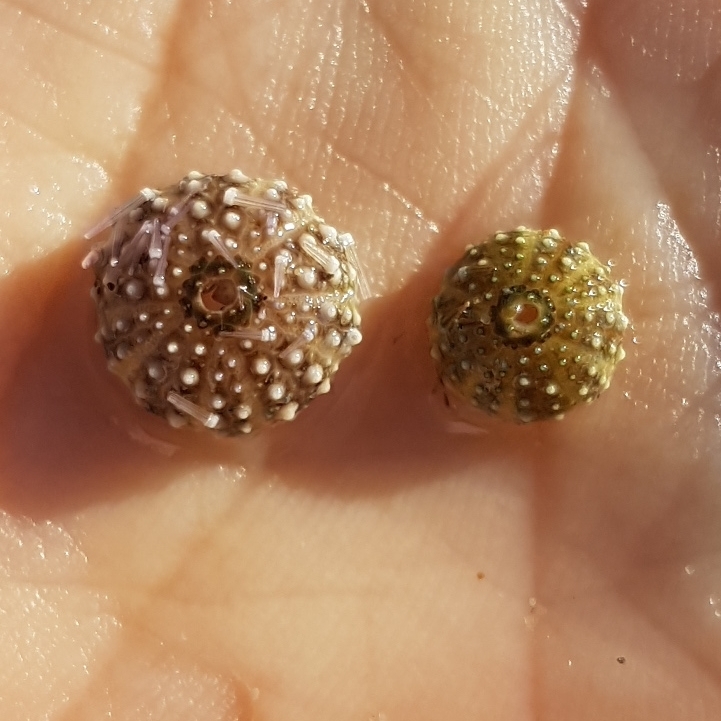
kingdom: Animalia
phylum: Echinodermata
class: Echinoidea
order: Camarodonta
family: Parechinidae
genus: Paracentrotus
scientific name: Paracentrotus lividus
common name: Purple sea urchin
